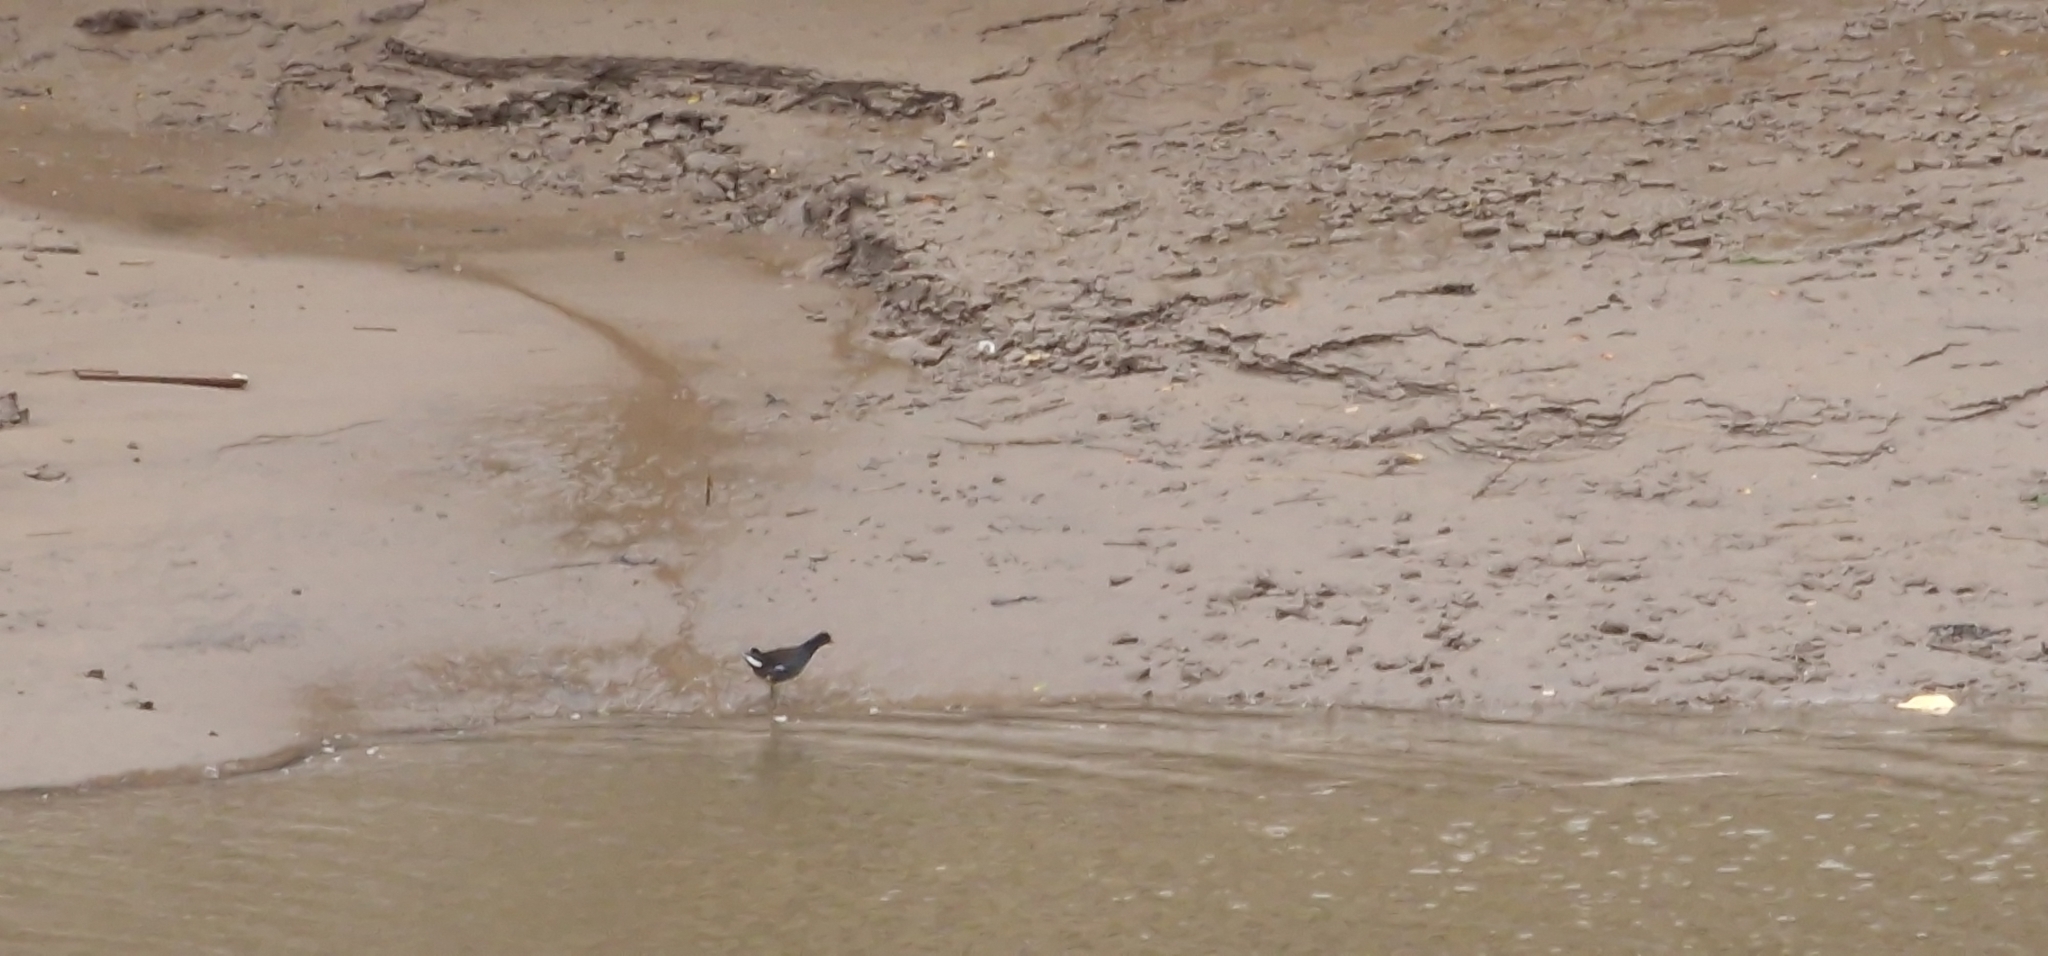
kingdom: Animalia
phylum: Chordata
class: Aves
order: Gruiformes
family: Rallidae
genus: Gallinula
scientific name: Gallinula chloropus
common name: Common moorhen
